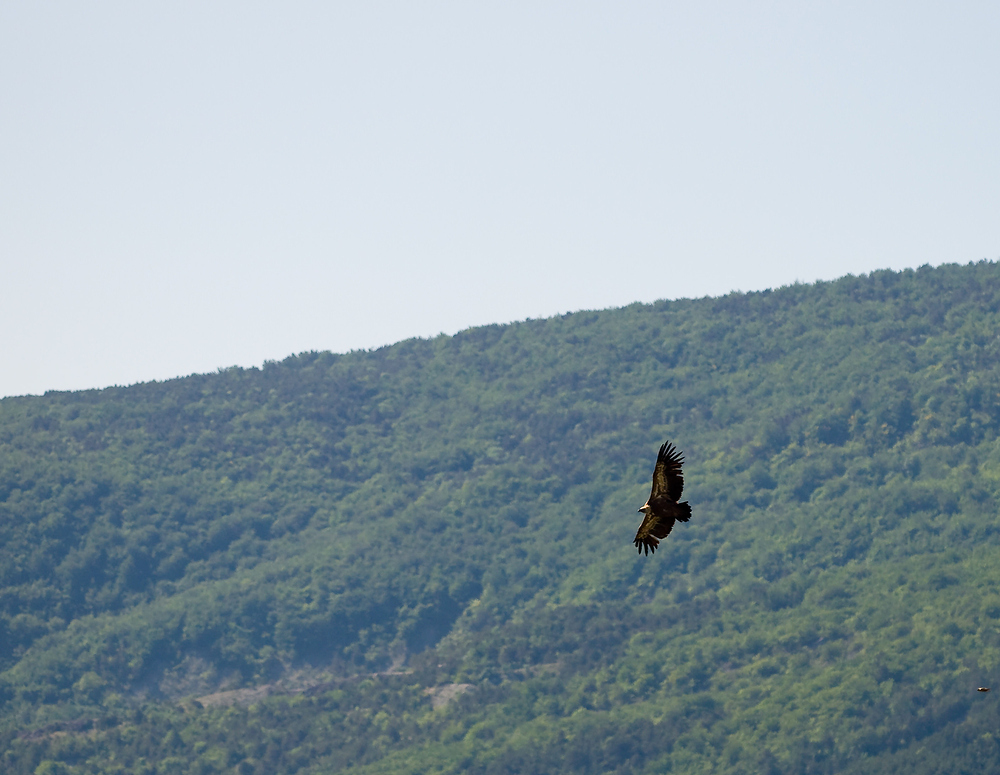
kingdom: Animalia
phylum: Chordata
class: Aves
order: Accipitriformes
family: Accipitridae
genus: Gyps
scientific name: Gyps fulvus
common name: Griffon vulture
